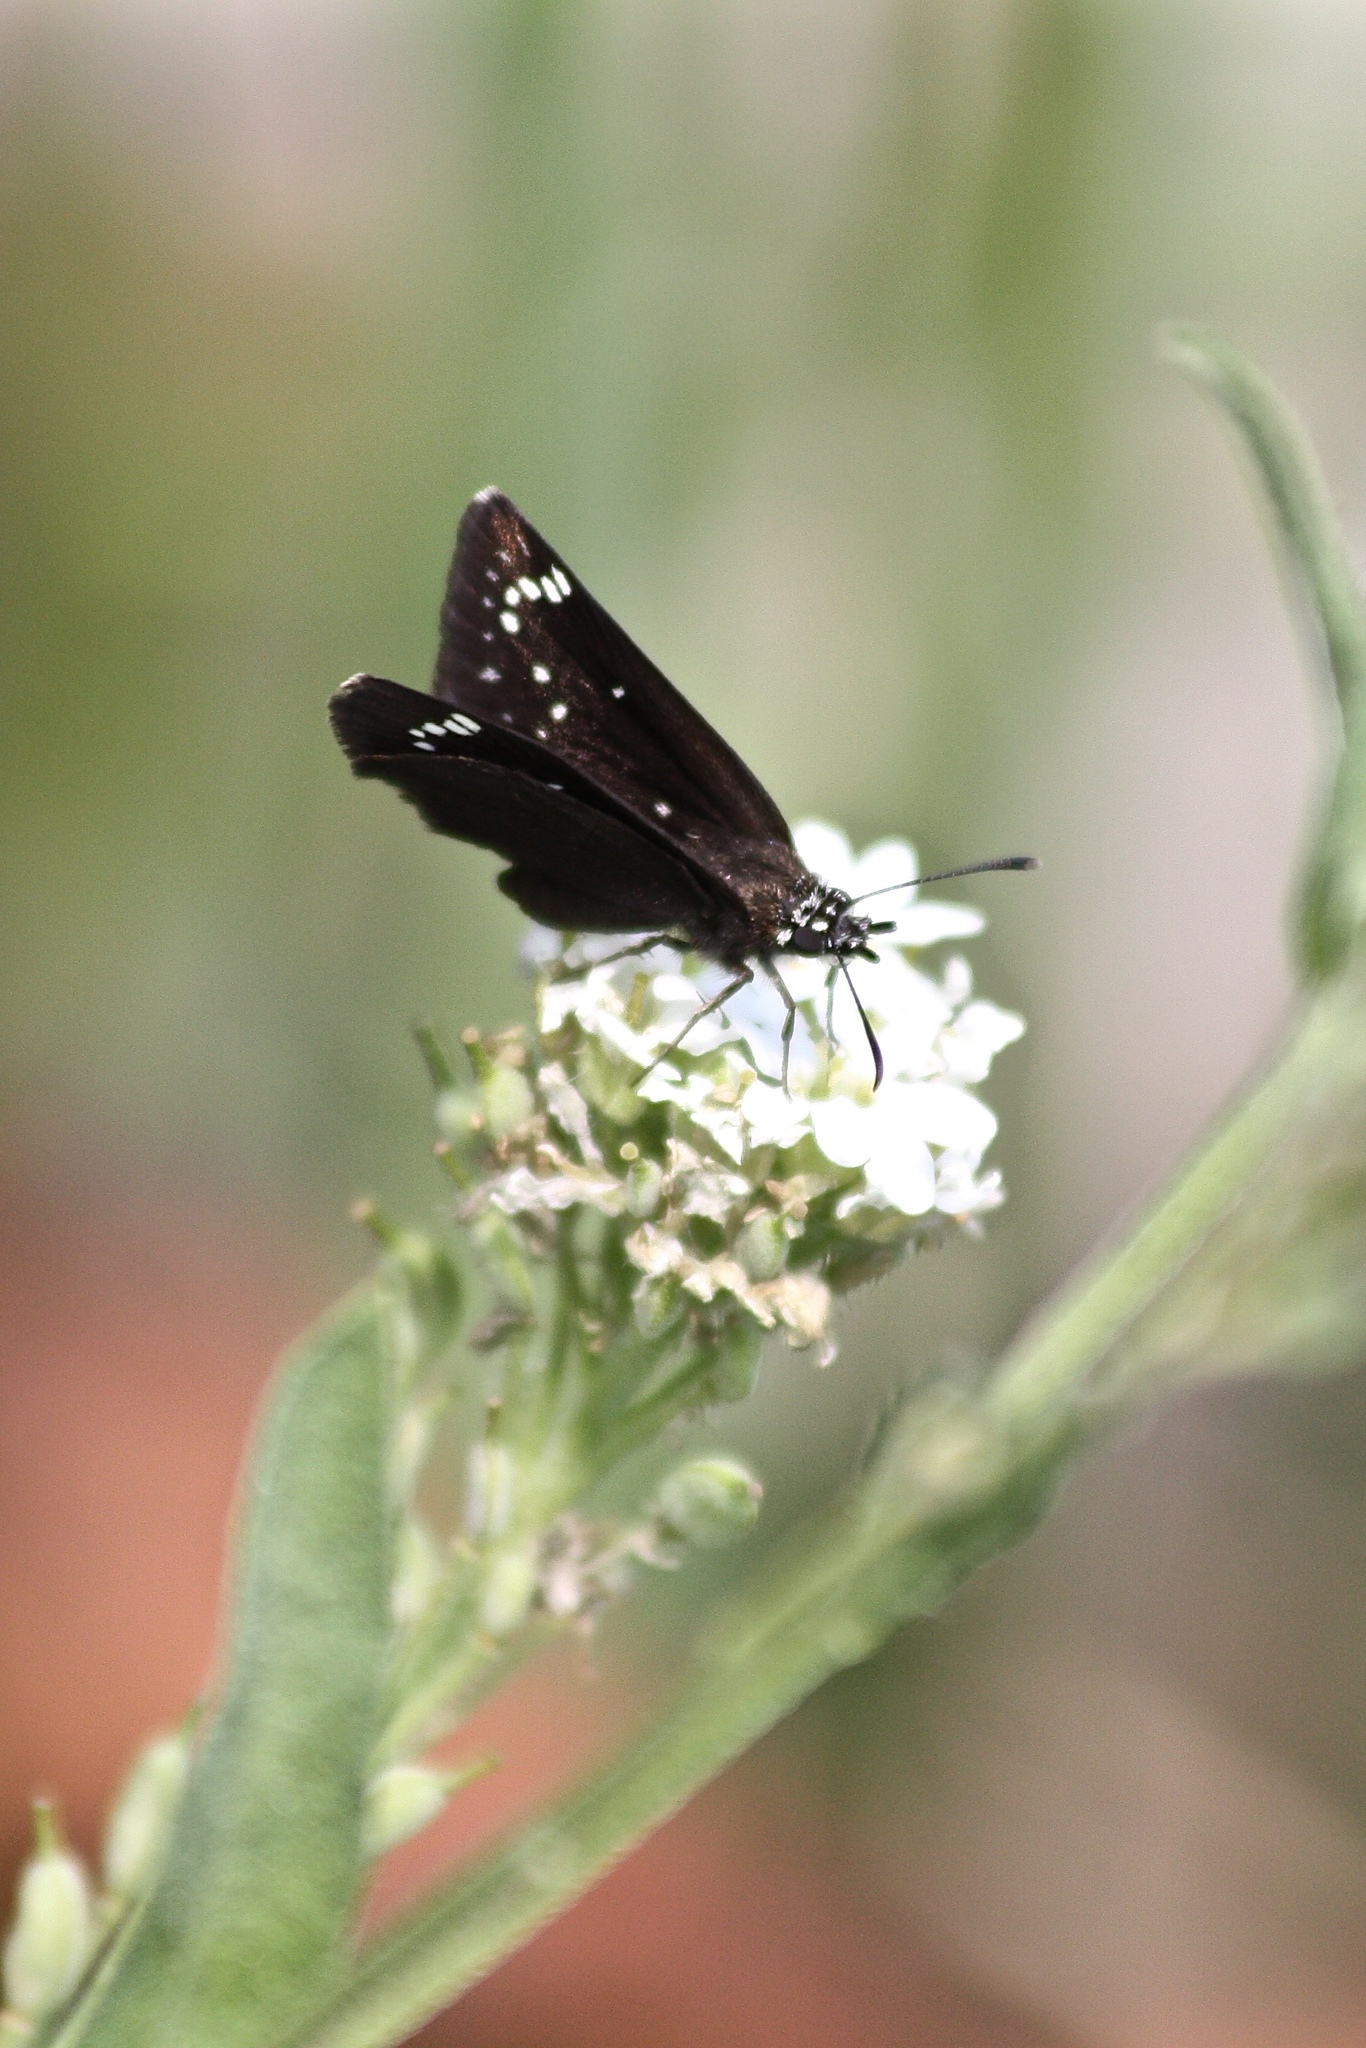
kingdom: Animalia
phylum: Arthropoda
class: Insecta
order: Lepidoptera
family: Hesperiidae
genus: Pholisora
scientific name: Pholisora catullus
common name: Common sootywing
